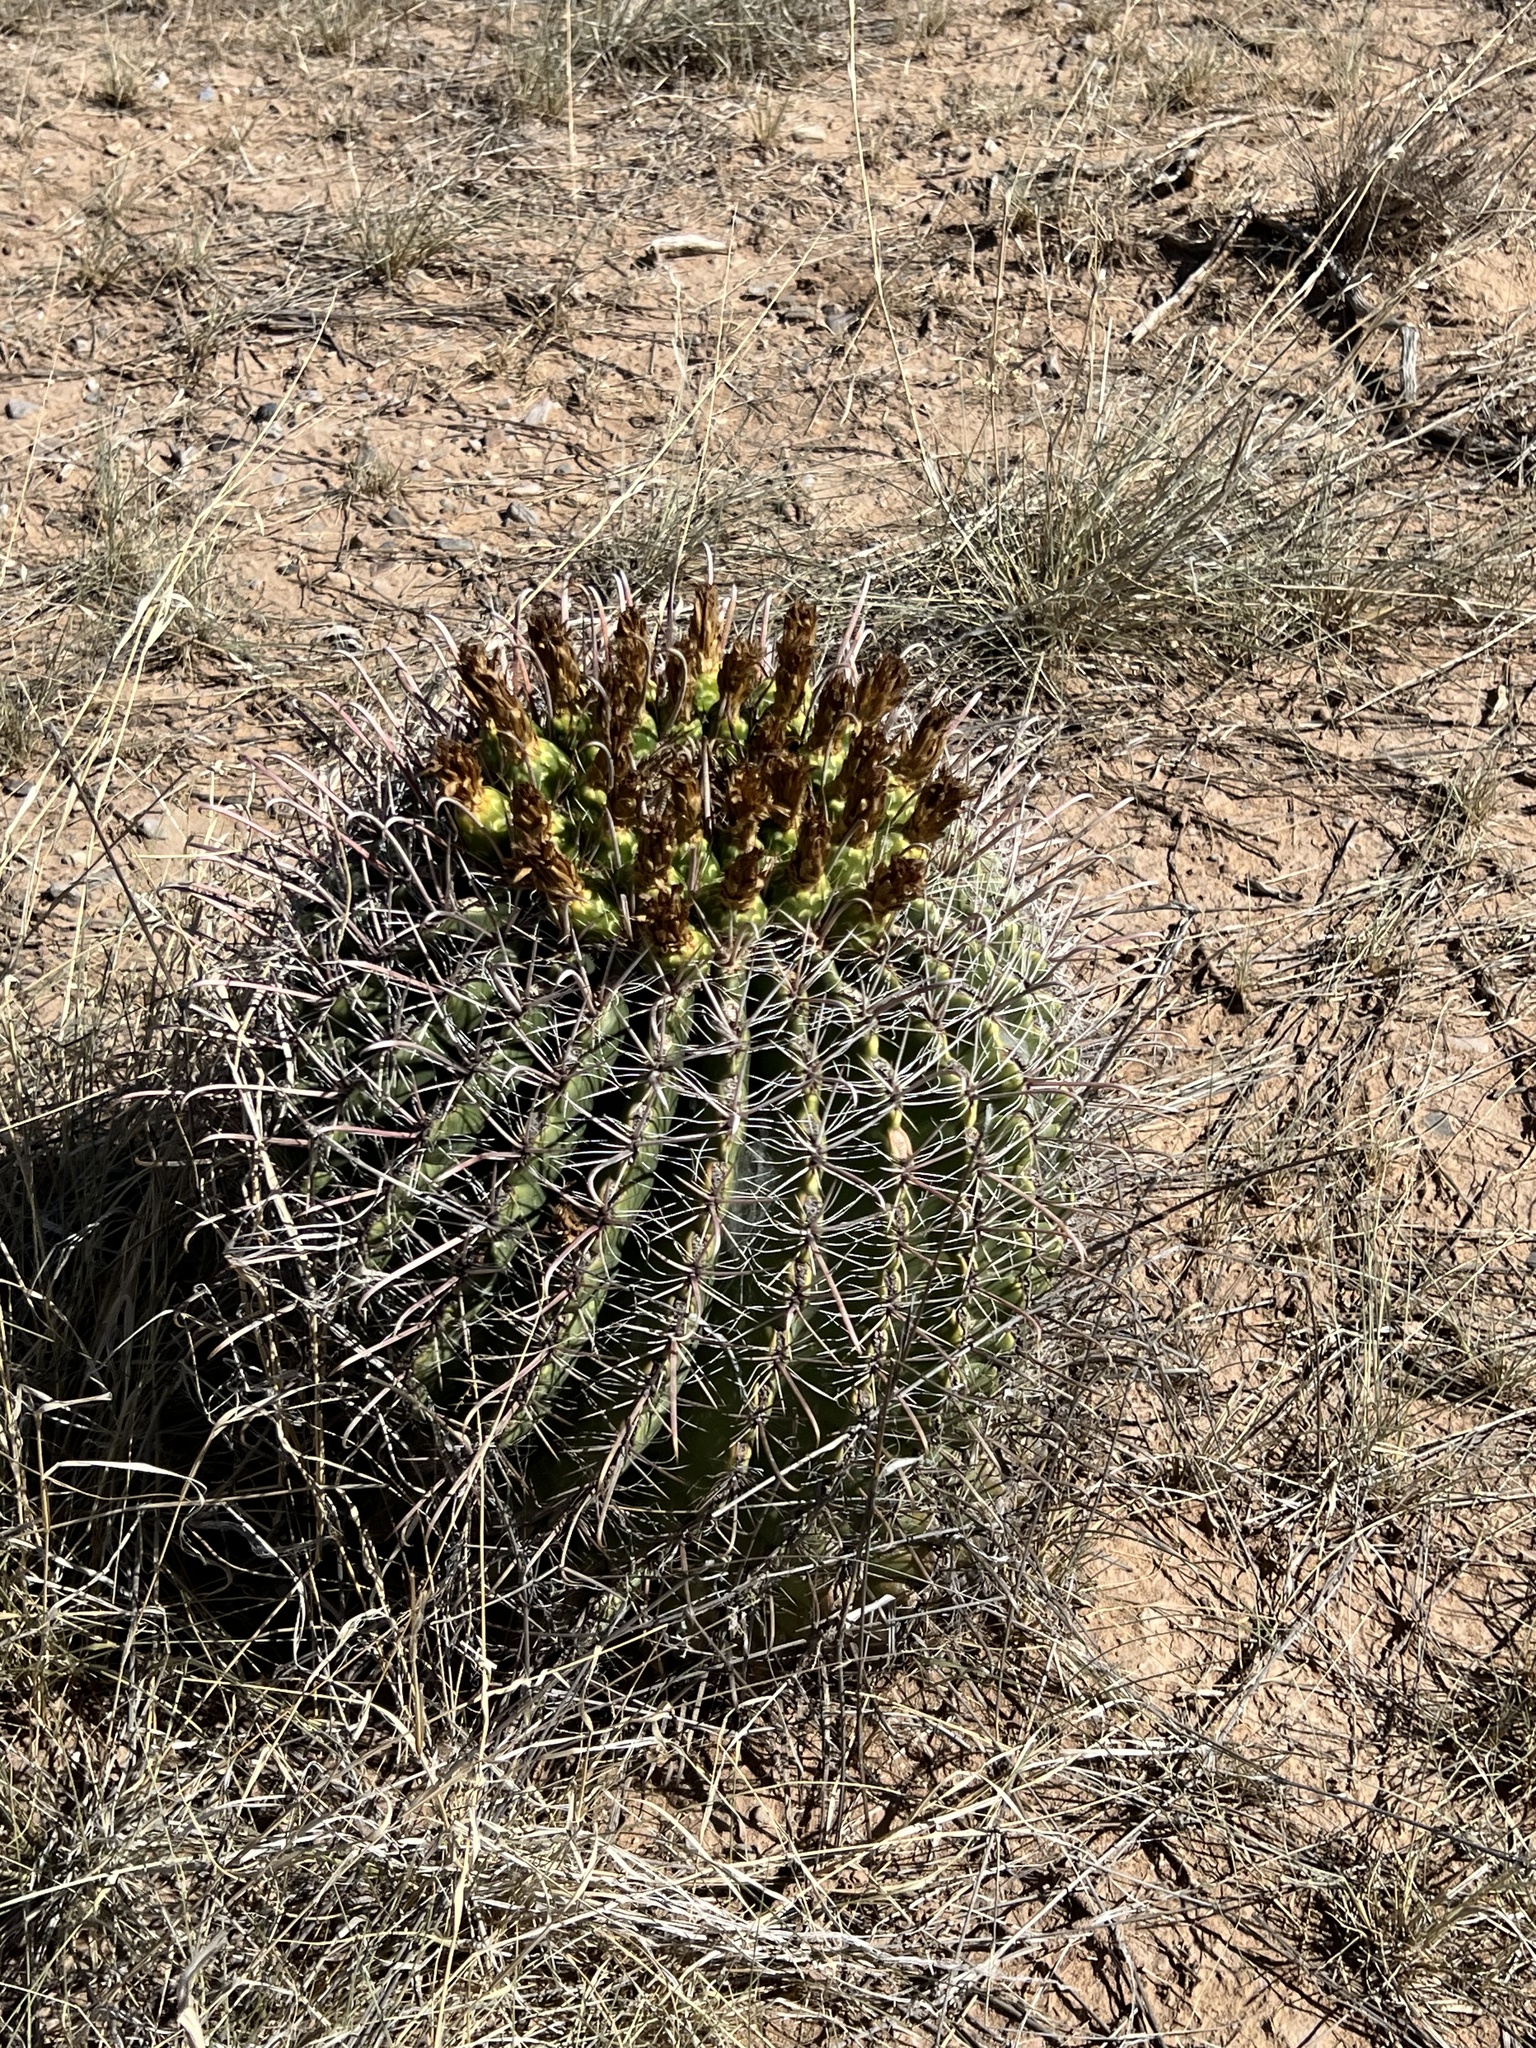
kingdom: Plantae
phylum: Tracheophyta
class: Magnoliopsida
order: Caryophyllales
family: Cactaceae
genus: Ferocactus
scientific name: Ferocactus wislizeni
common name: Candy barrel cactus
